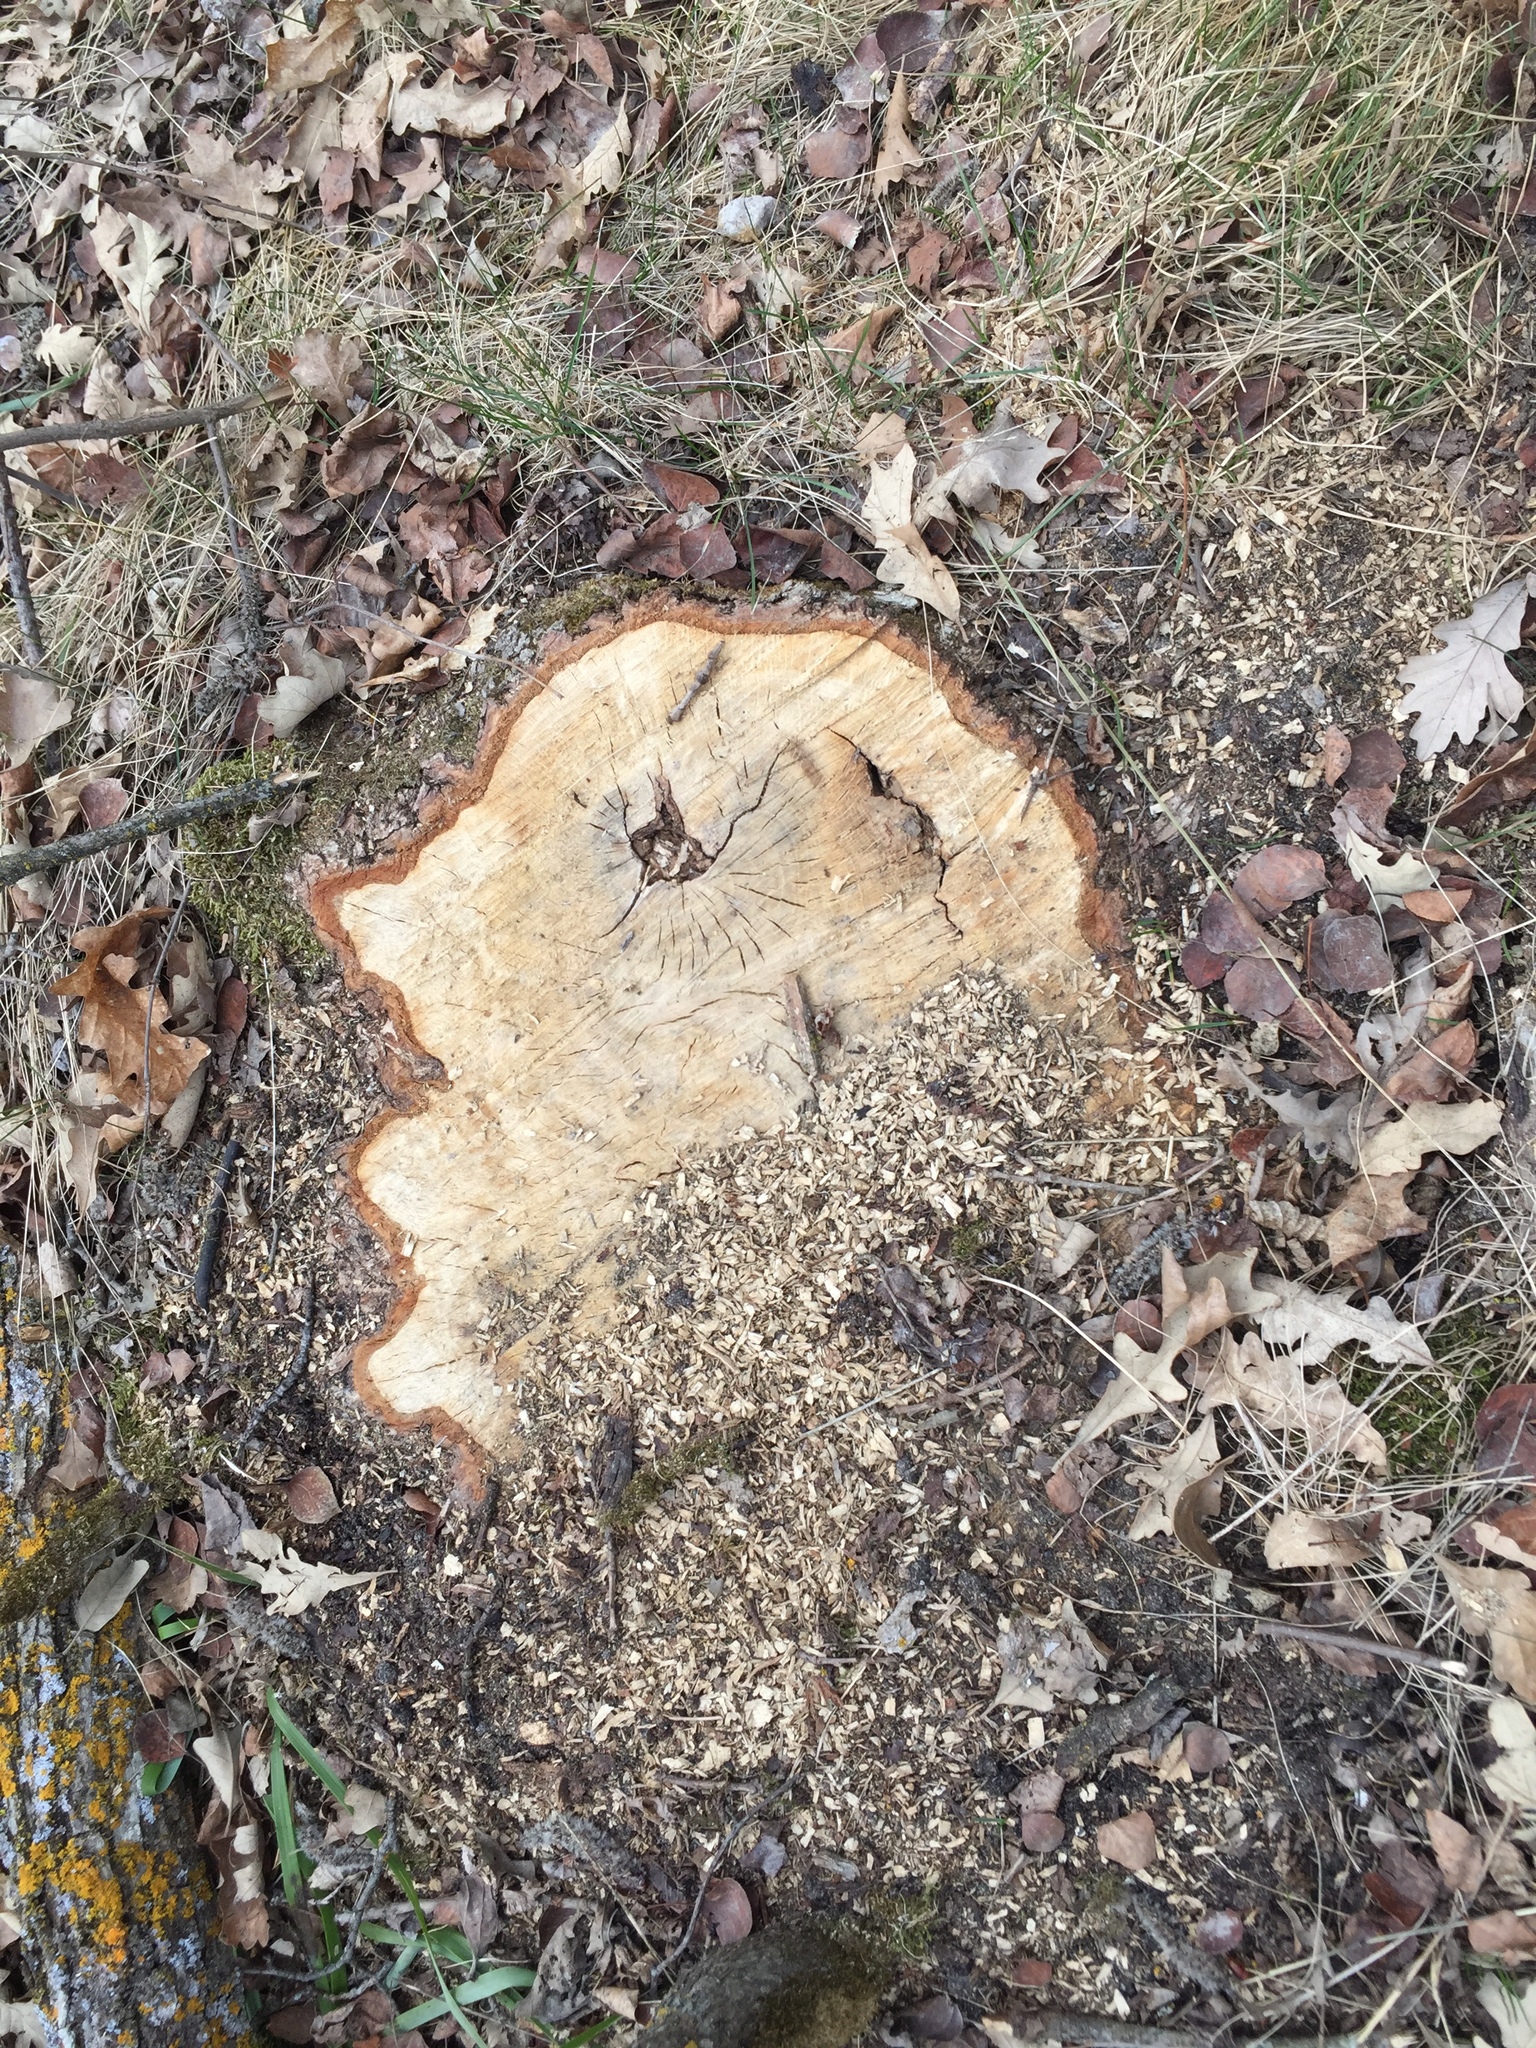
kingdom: Plantae
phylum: Tracheophyta
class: Magnoliopsida
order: Fagales
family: Fagaceae
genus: Quercus
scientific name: Quercus macrocarpa
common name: Bur oak
